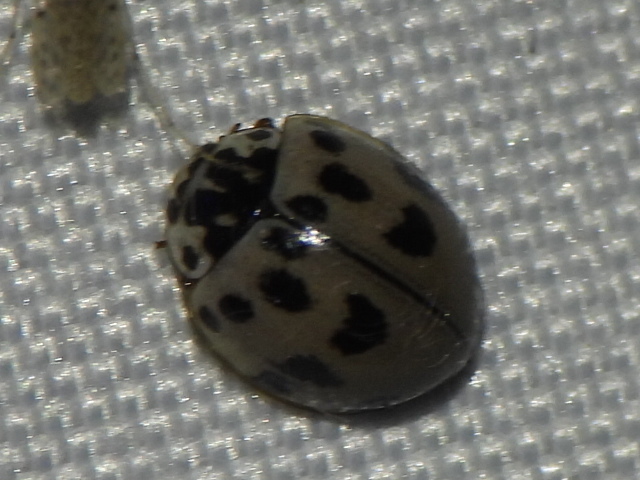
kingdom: Animalia
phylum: Arthropoda
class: Insecta
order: Coleoptera
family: Coccinellidae
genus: Olla
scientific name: Olla v-nigrum
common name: Ashy gray lady beetle
